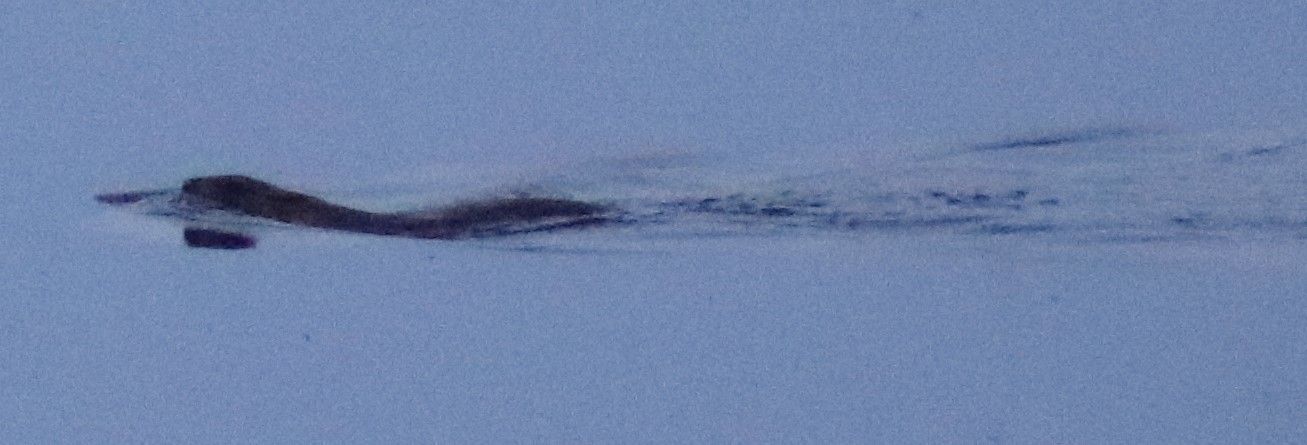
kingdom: Animalia
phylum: Chordata
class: Mammalia
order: Rodentia
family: Cricetidae
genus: Ondatra
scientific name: Ondatra zibethicus
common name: Muskrat
